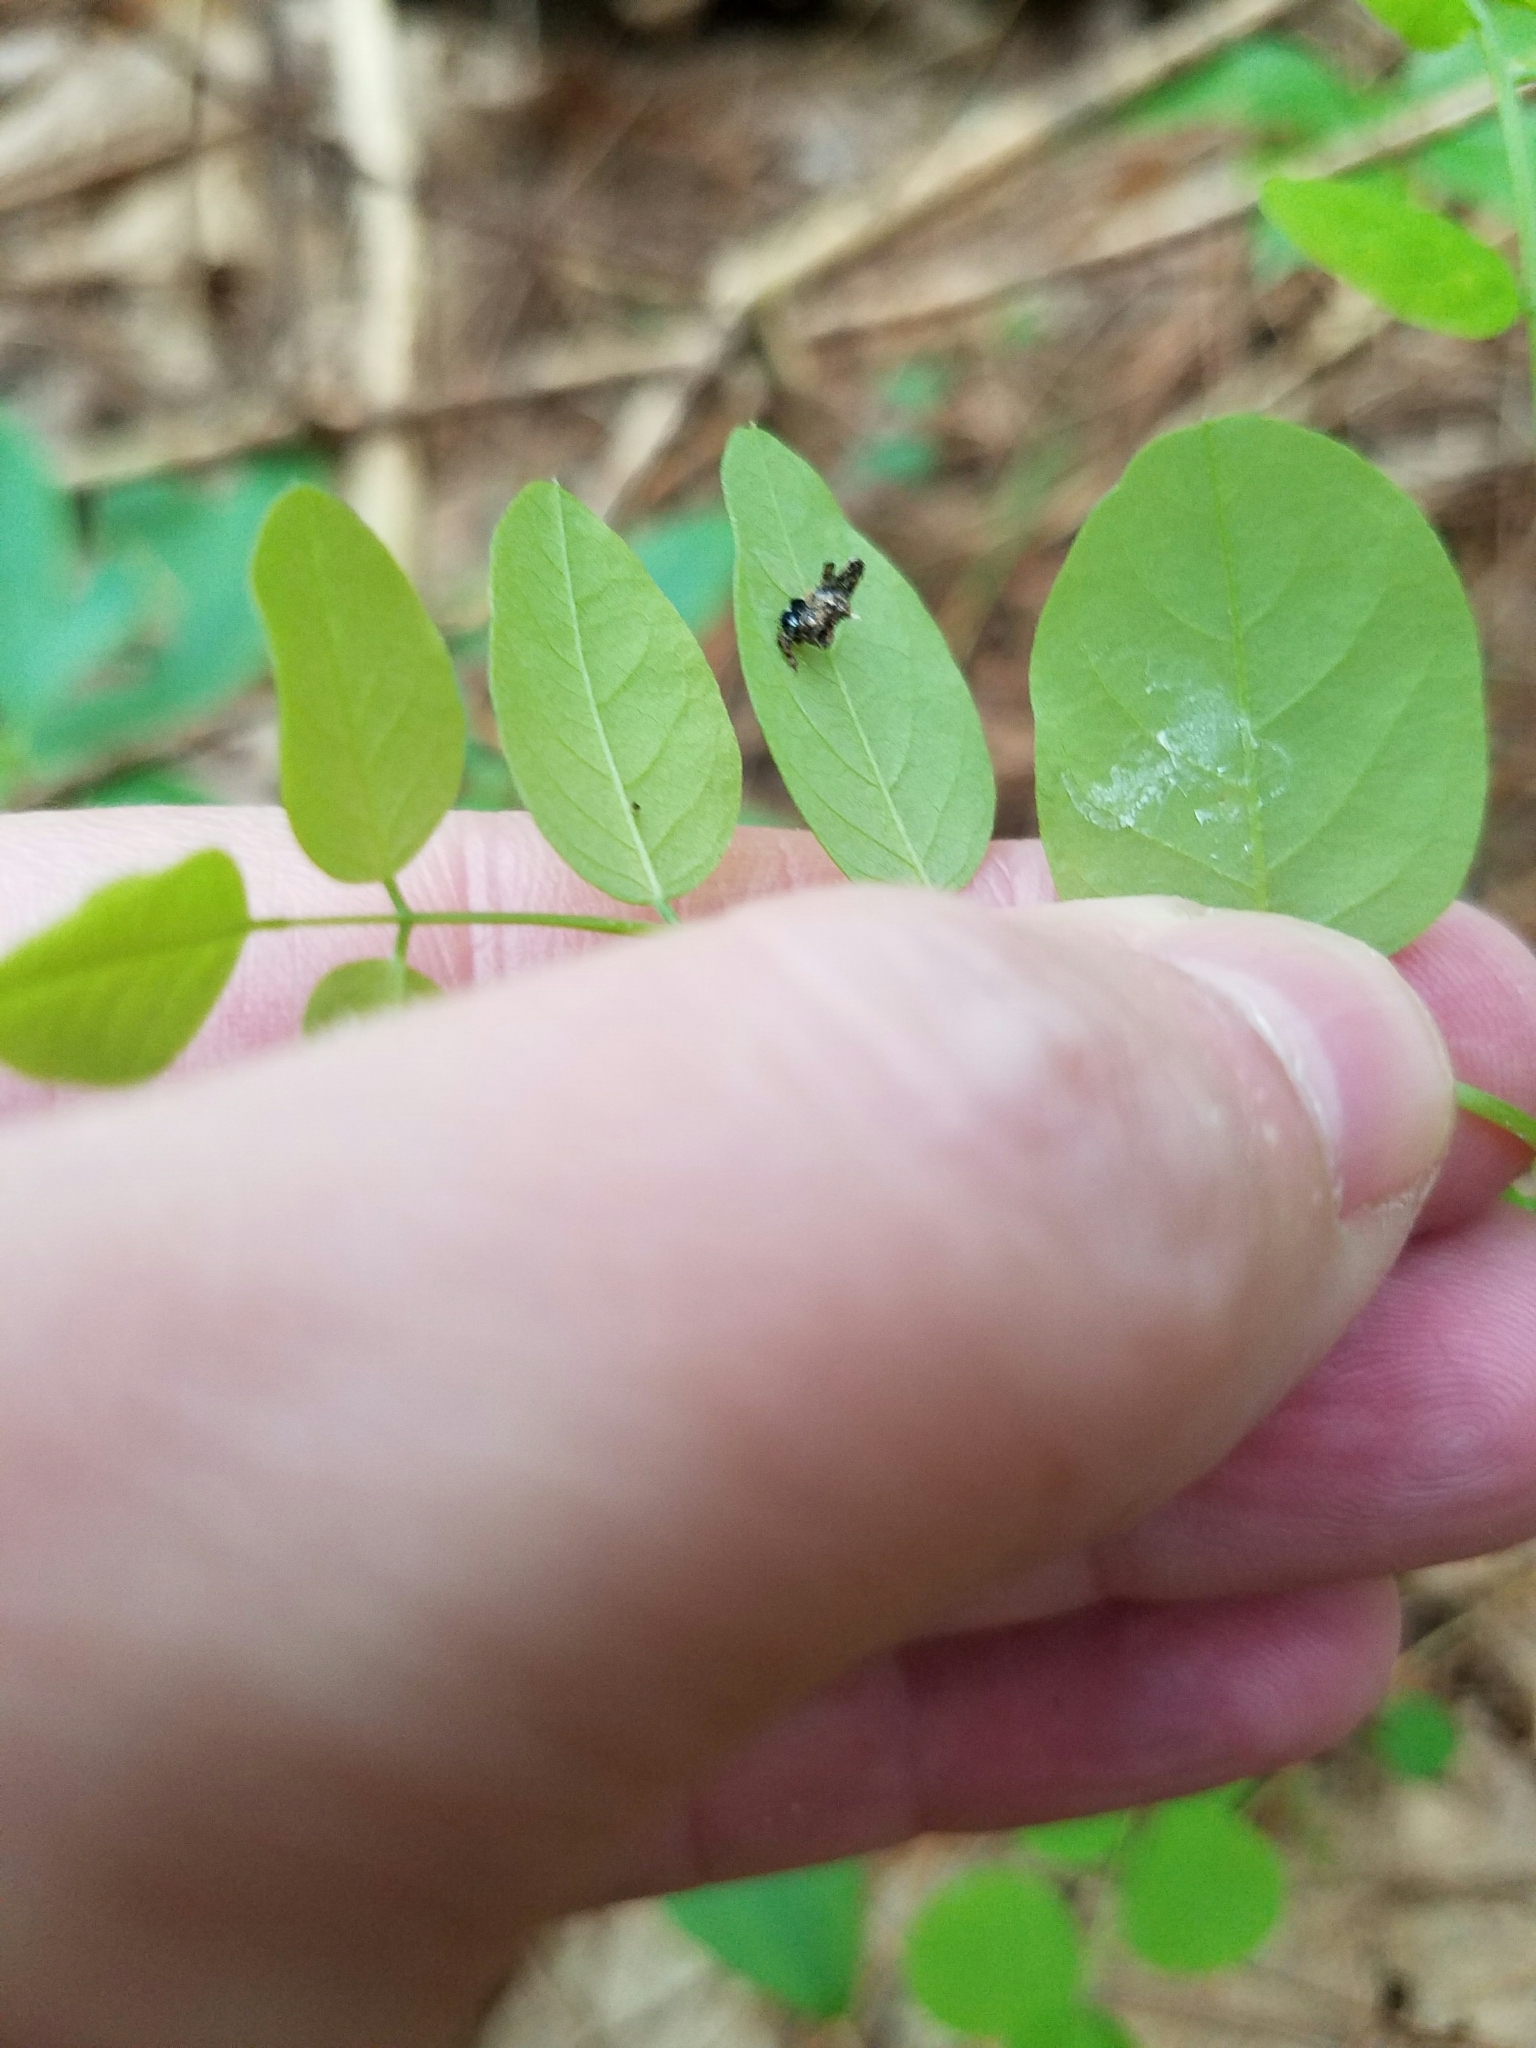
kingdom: Plantae
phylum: Tracheophyta
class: Magnoliopsida
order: Fabales
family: Fabaceae
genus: Robinia
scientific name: Robinia pseudoacacia
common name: Black locust
